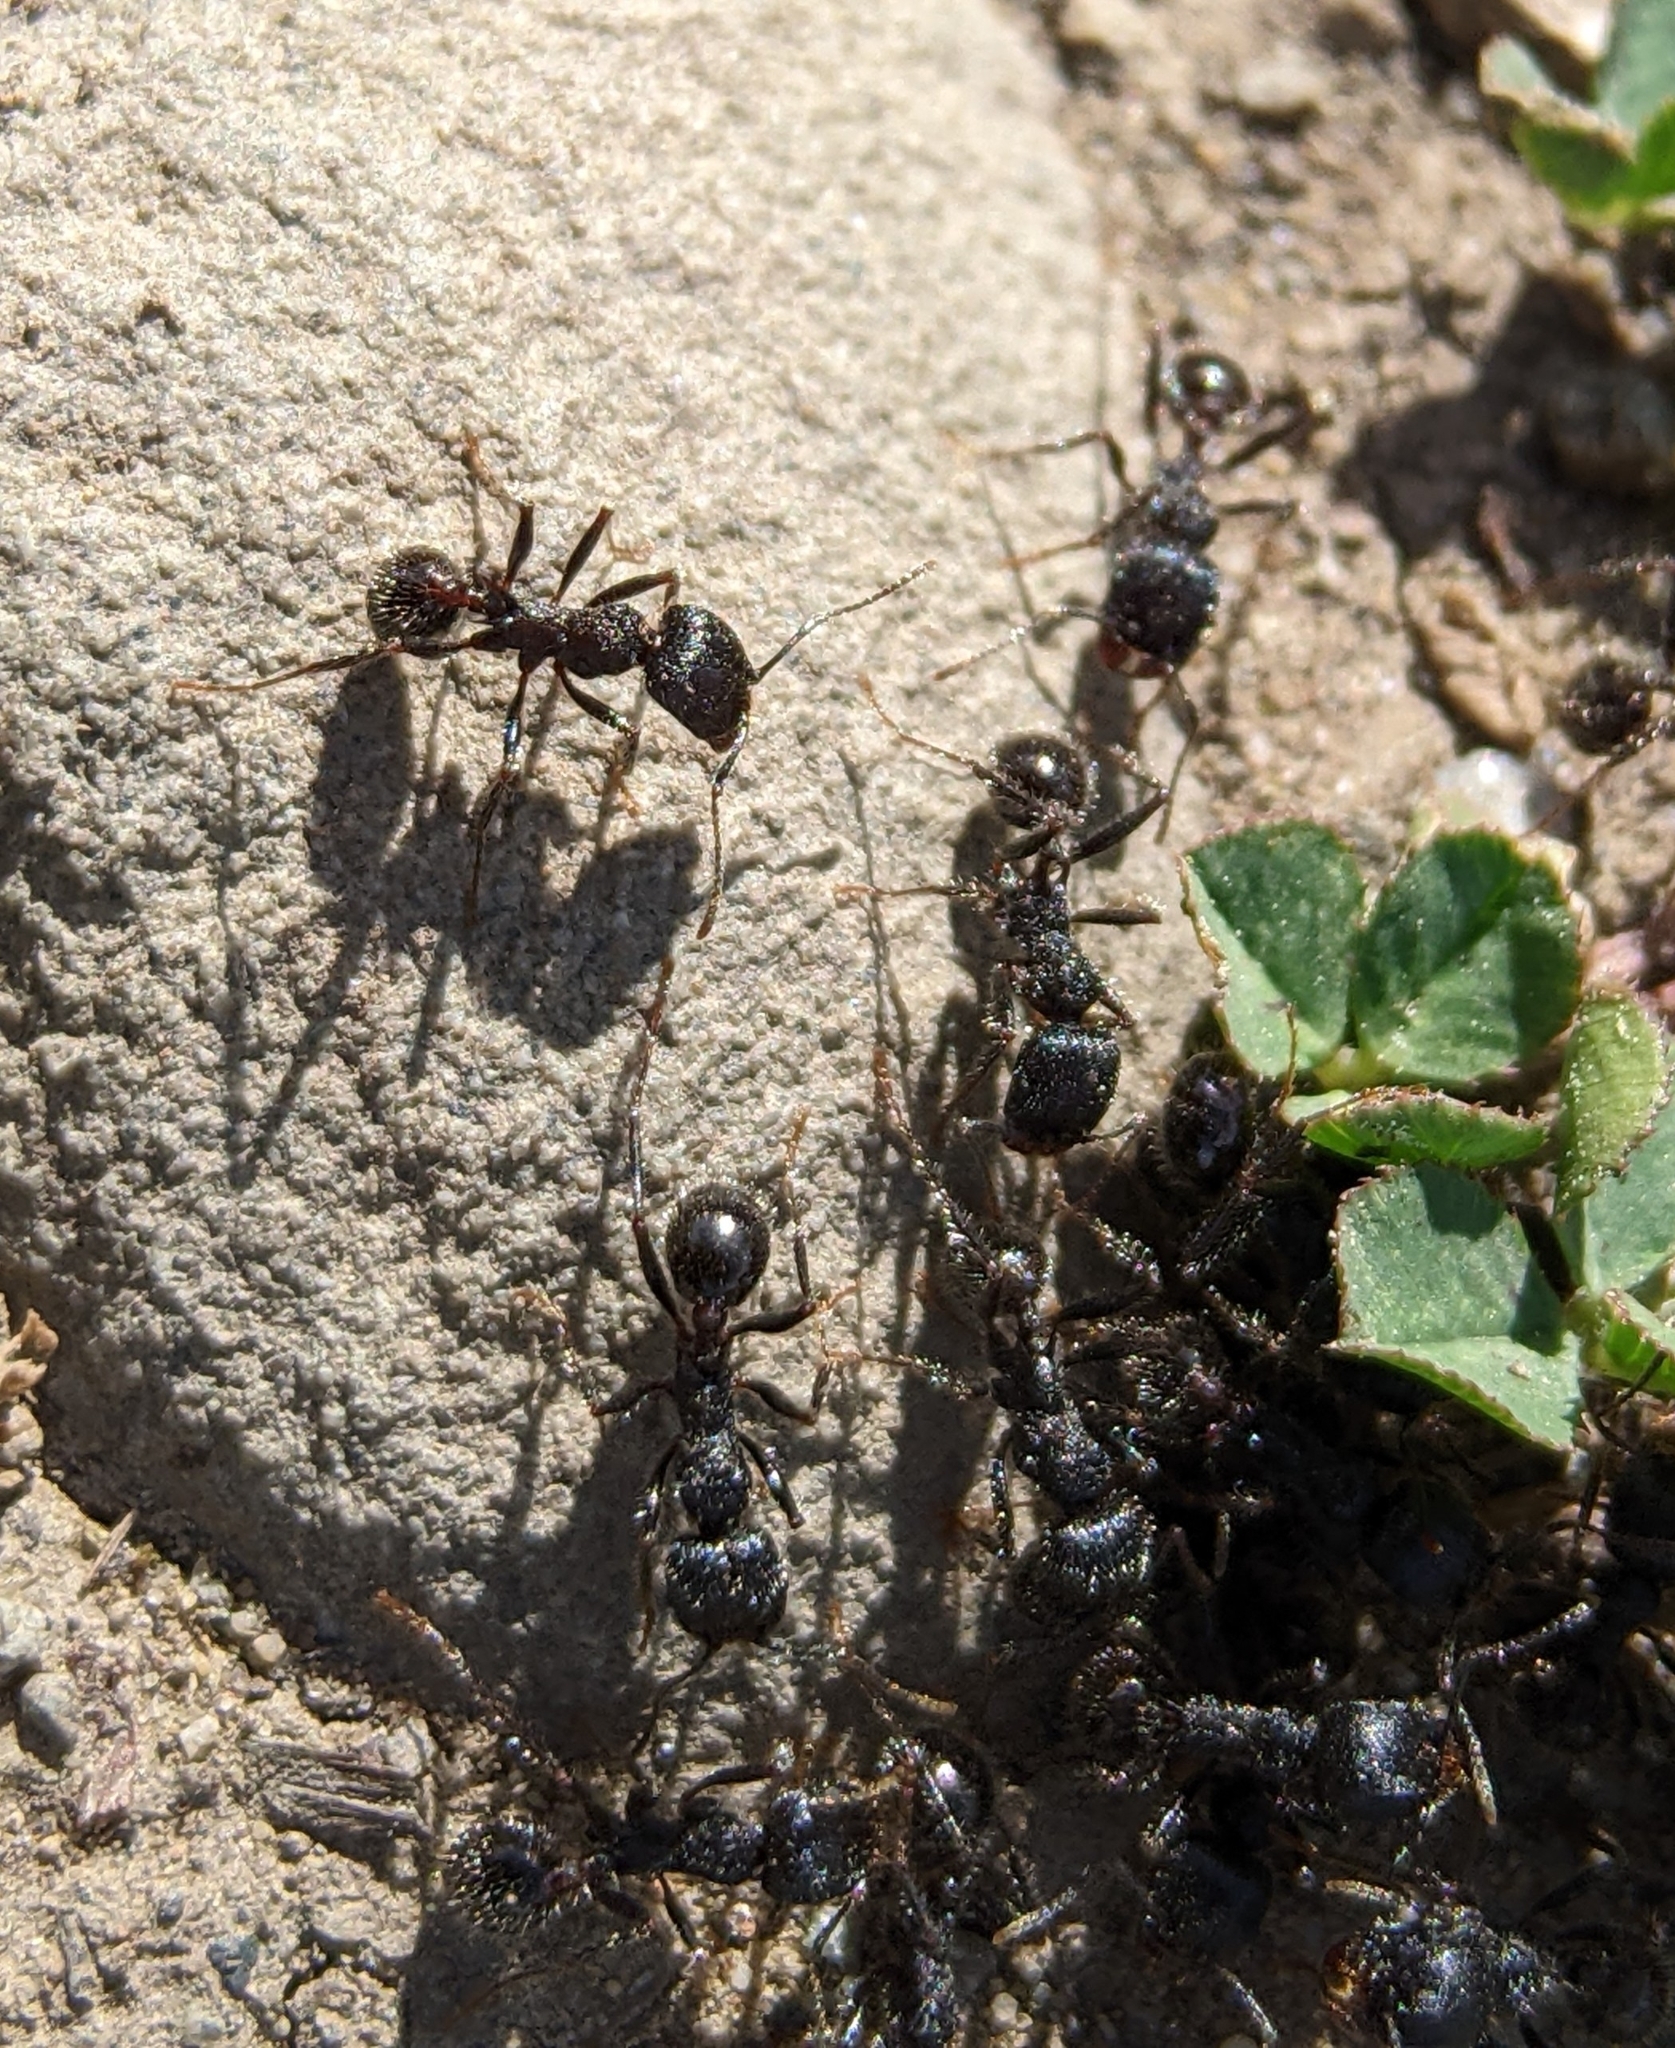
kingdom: Animalia
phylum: Arthropoda
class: Insecta
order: Hymenoptera
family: Formicidae
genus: Veromessor
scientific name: Veromessor andrei
